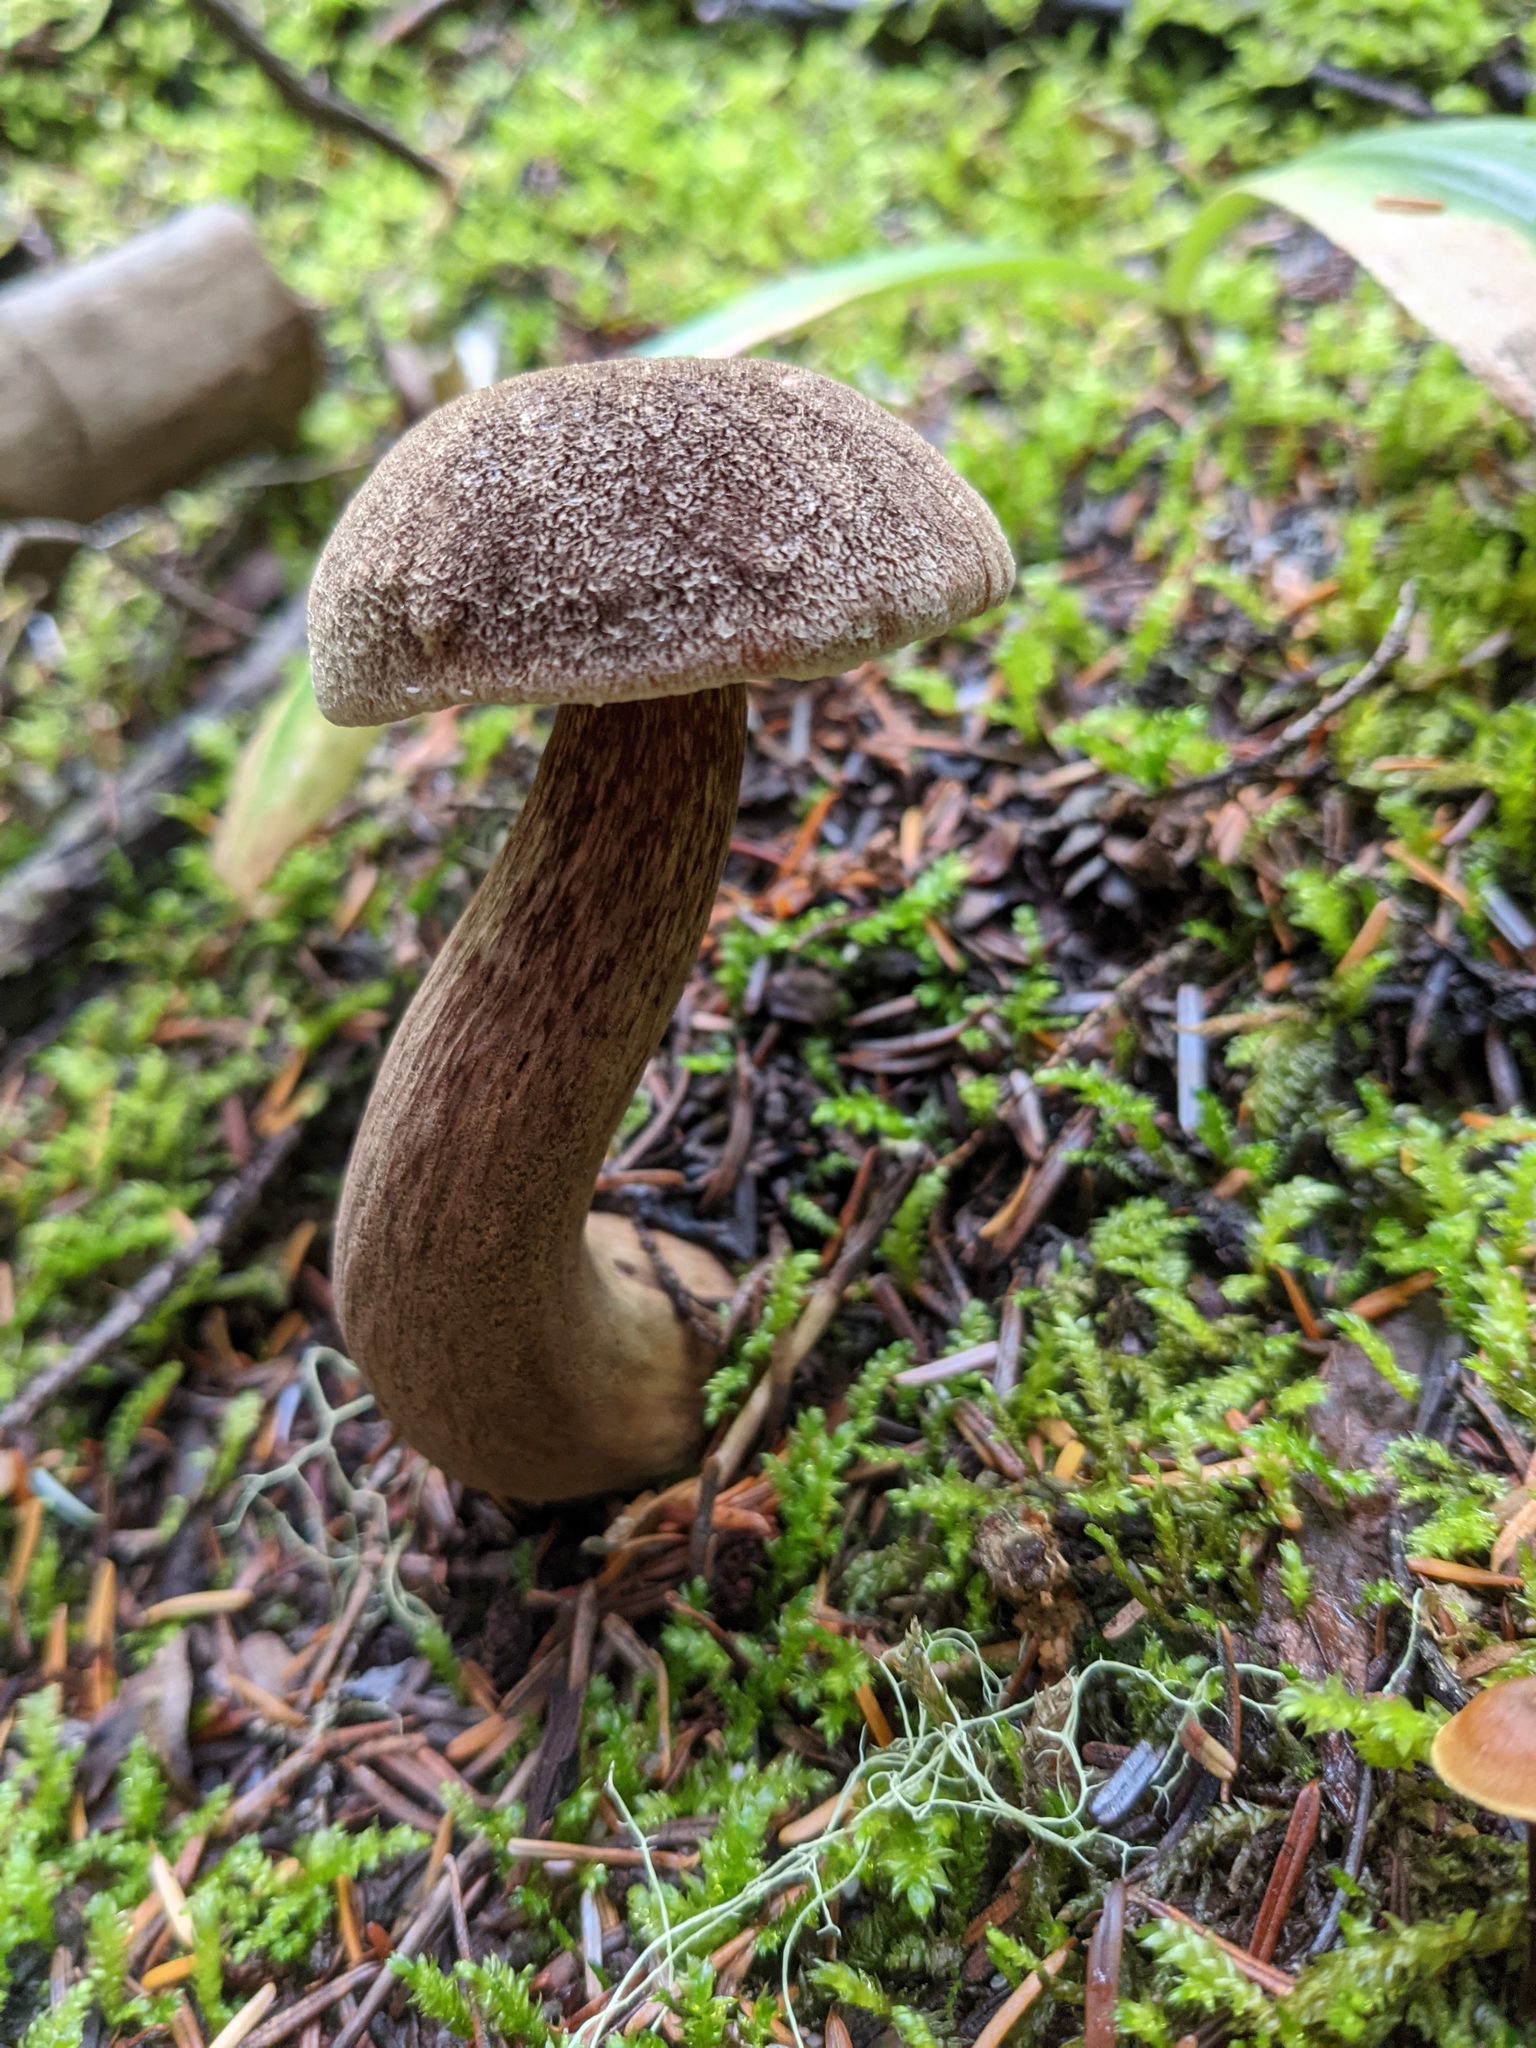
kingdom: Fungi
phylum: Basidiomycota
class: Agaricomycetes
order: Boletales
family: Boletaceae
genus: Aureoboletus
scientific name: Aureoboletus mirabilis
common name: Admirable bolete
